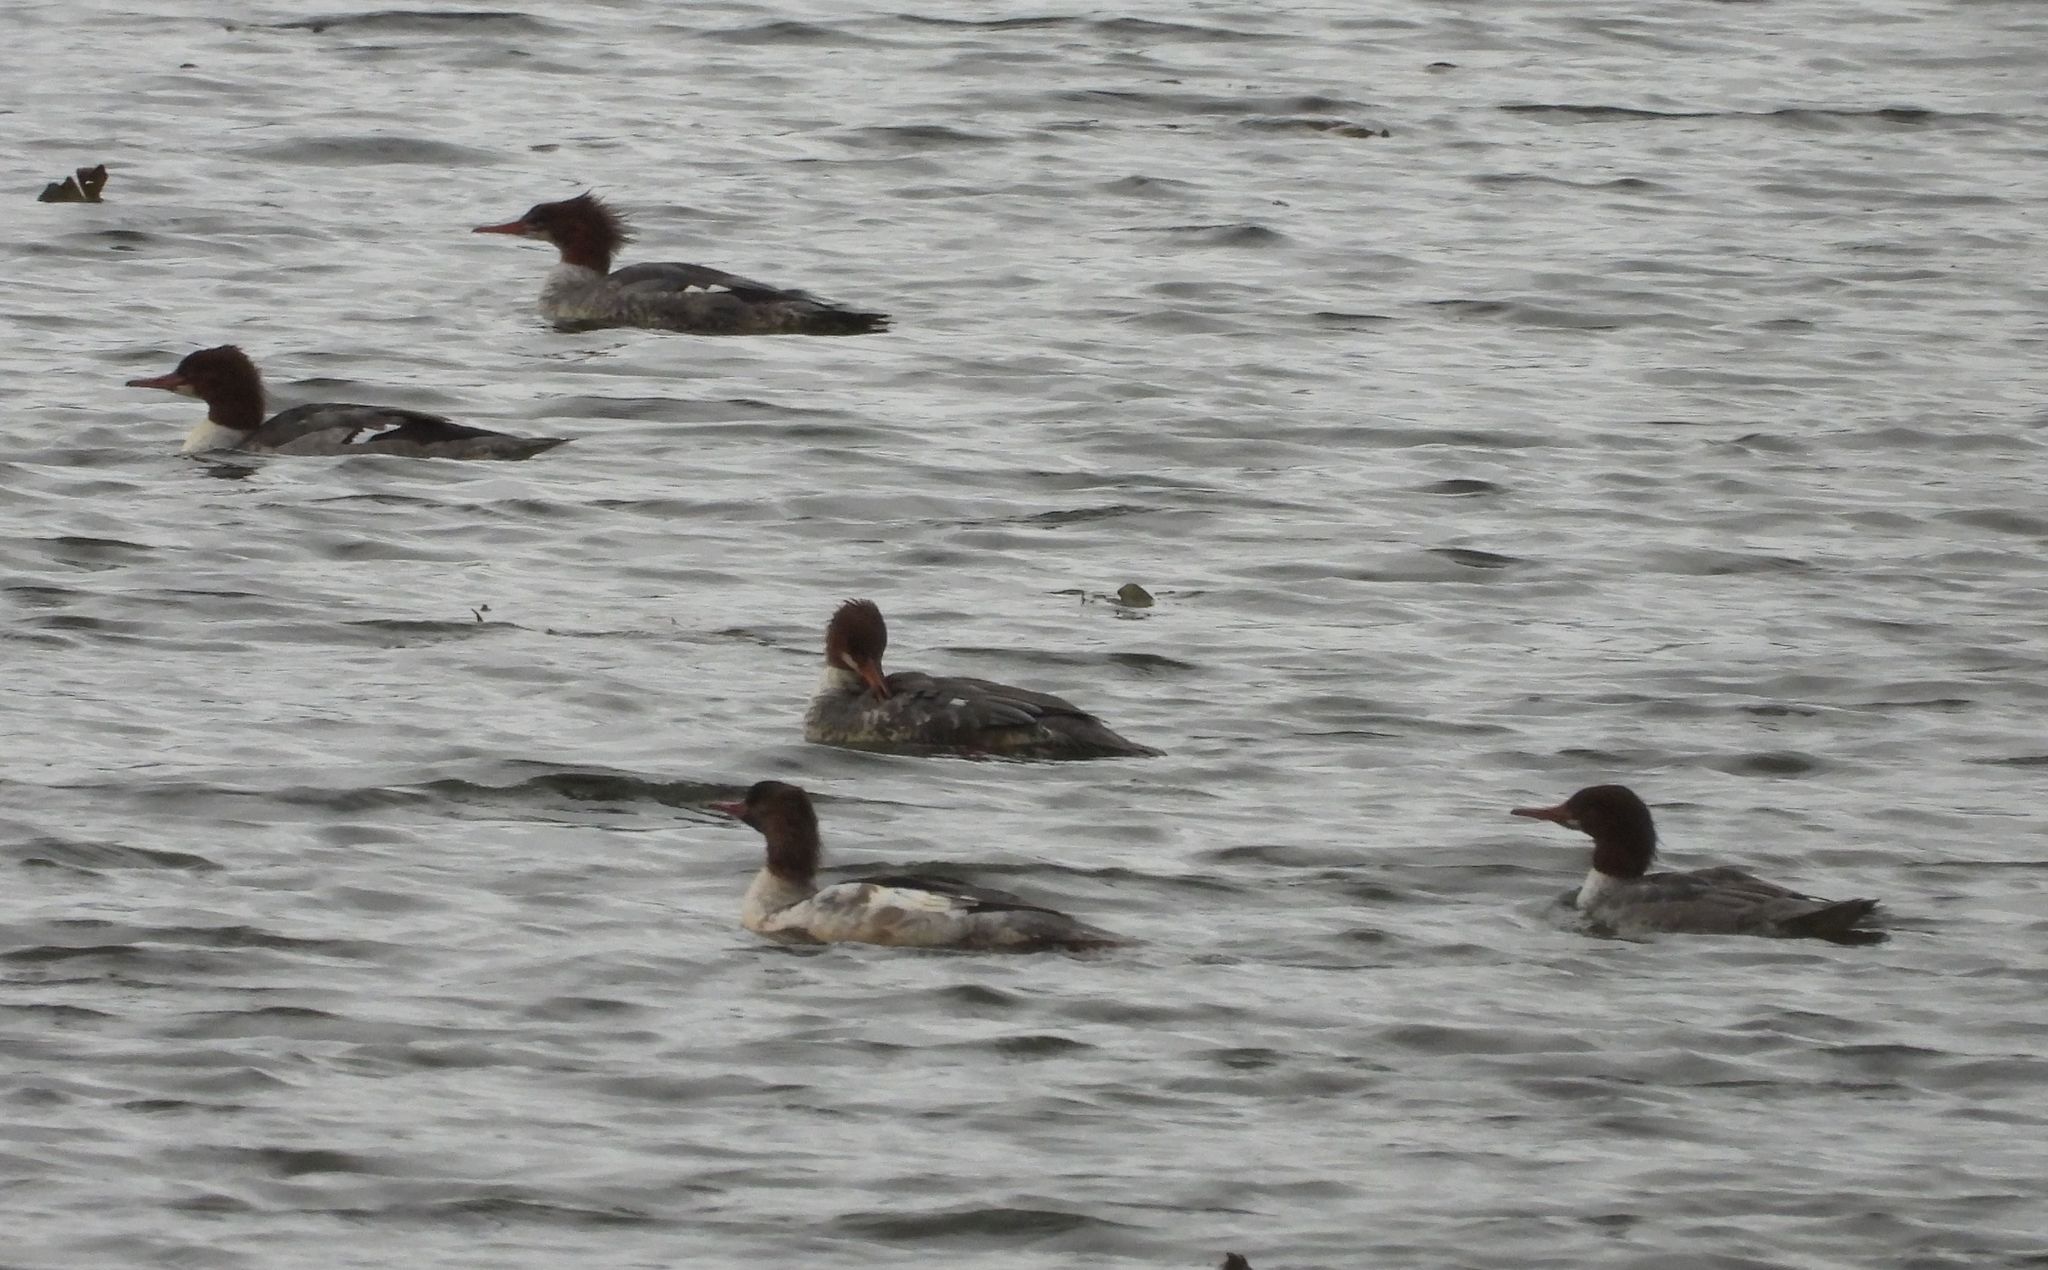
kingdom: Animalia
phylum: Chordata
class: Aves
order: Anseriformes
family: Anatidae
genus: Mergus
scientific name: Mergus merganser
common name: Common merganser
